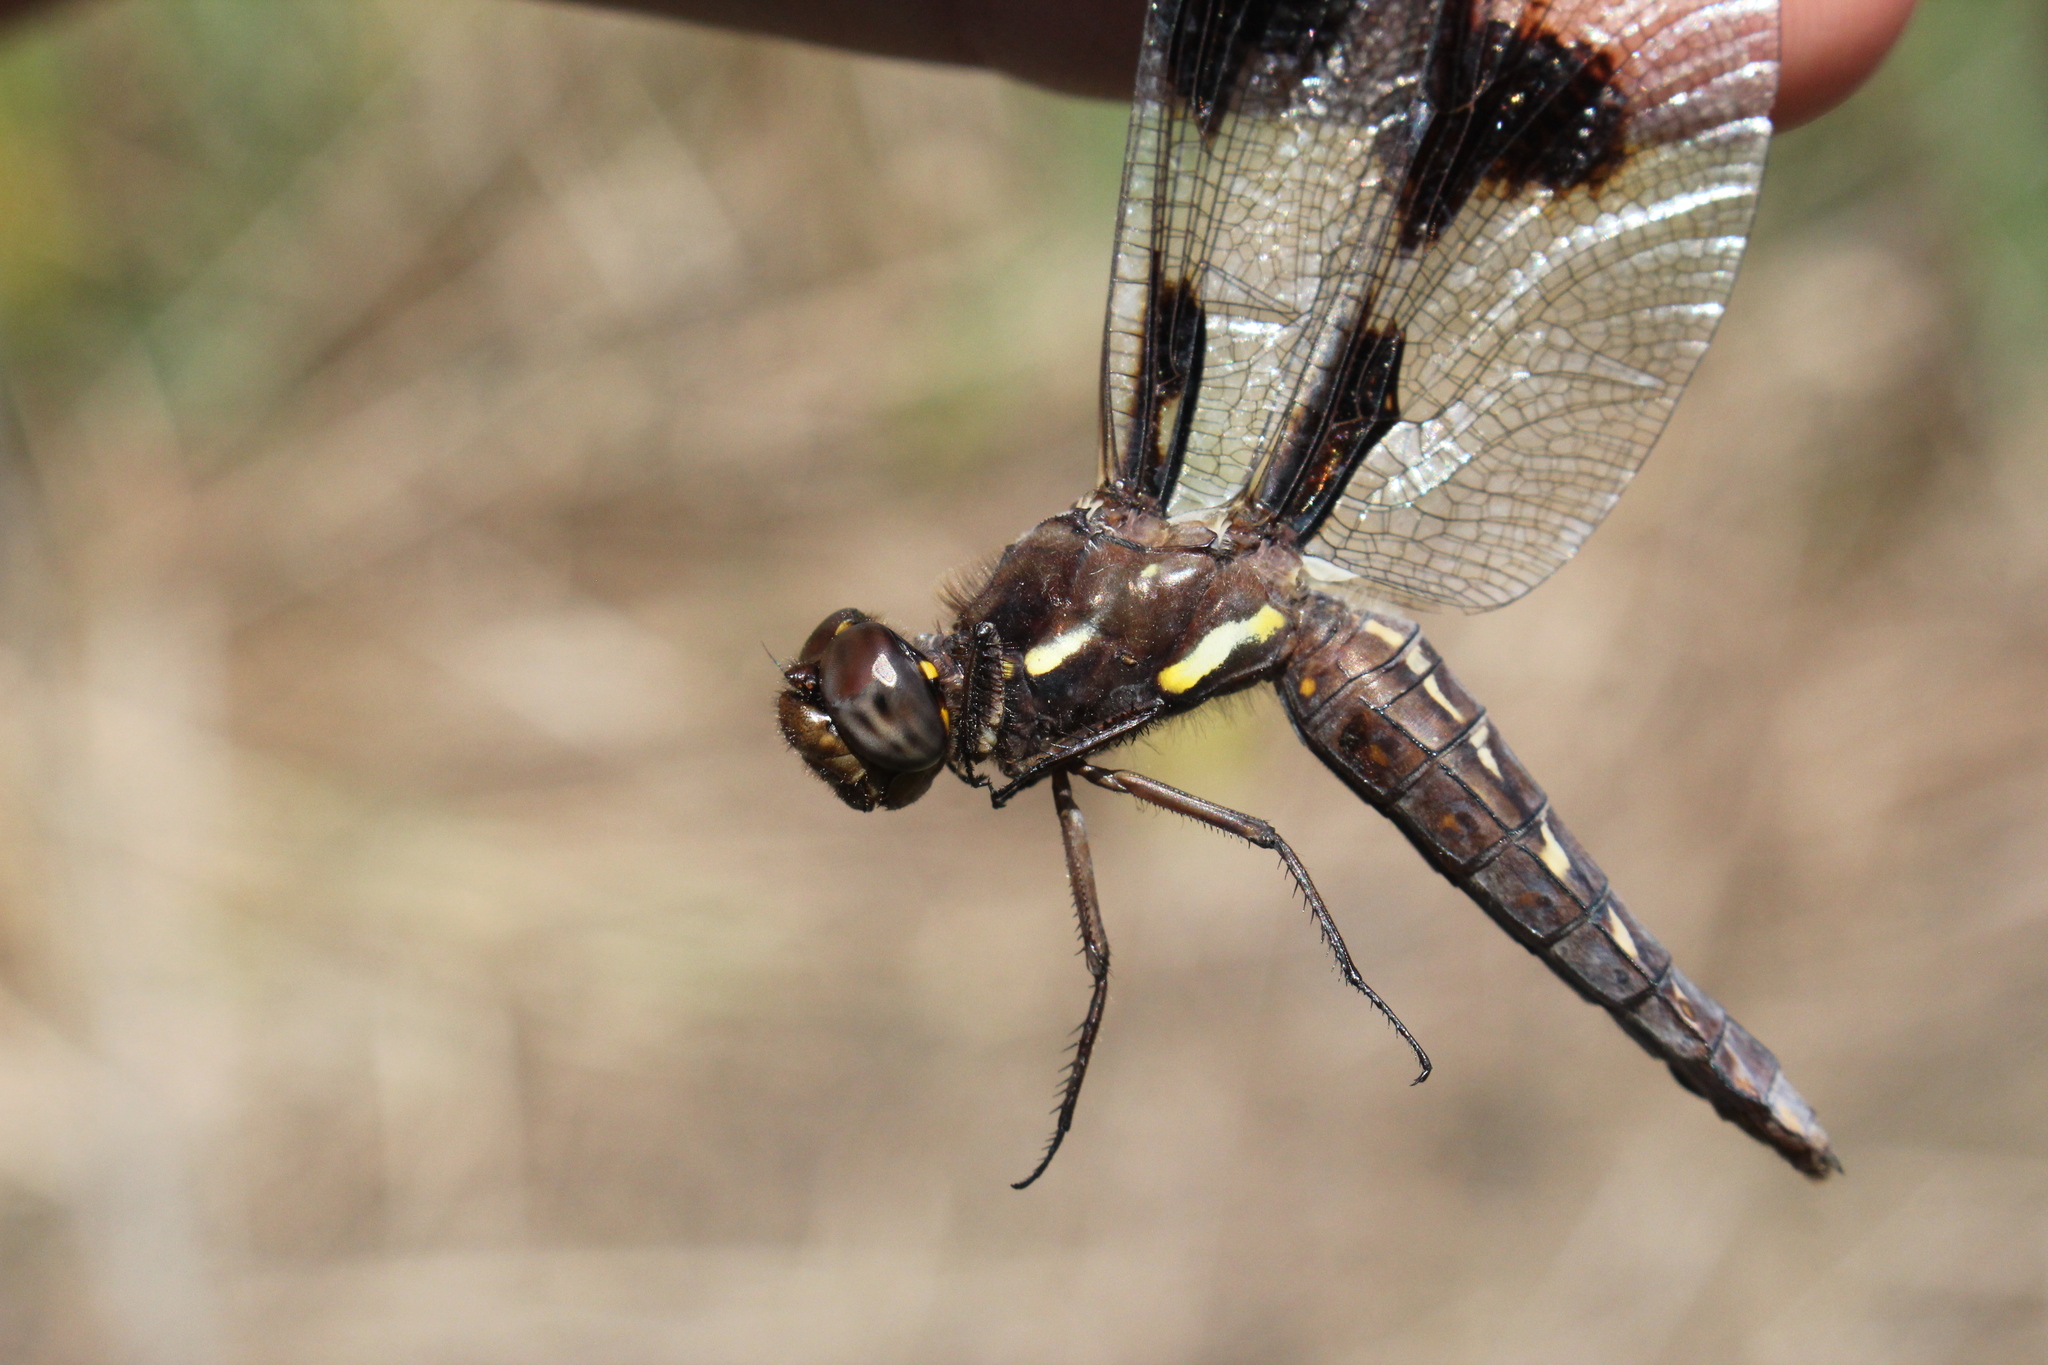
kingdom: Animalia
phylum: Arthropoda
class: Insecta
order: Odonata
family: Libellulidae
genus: Plathemis
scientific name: Plathemis lydia
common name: Common whitetail
